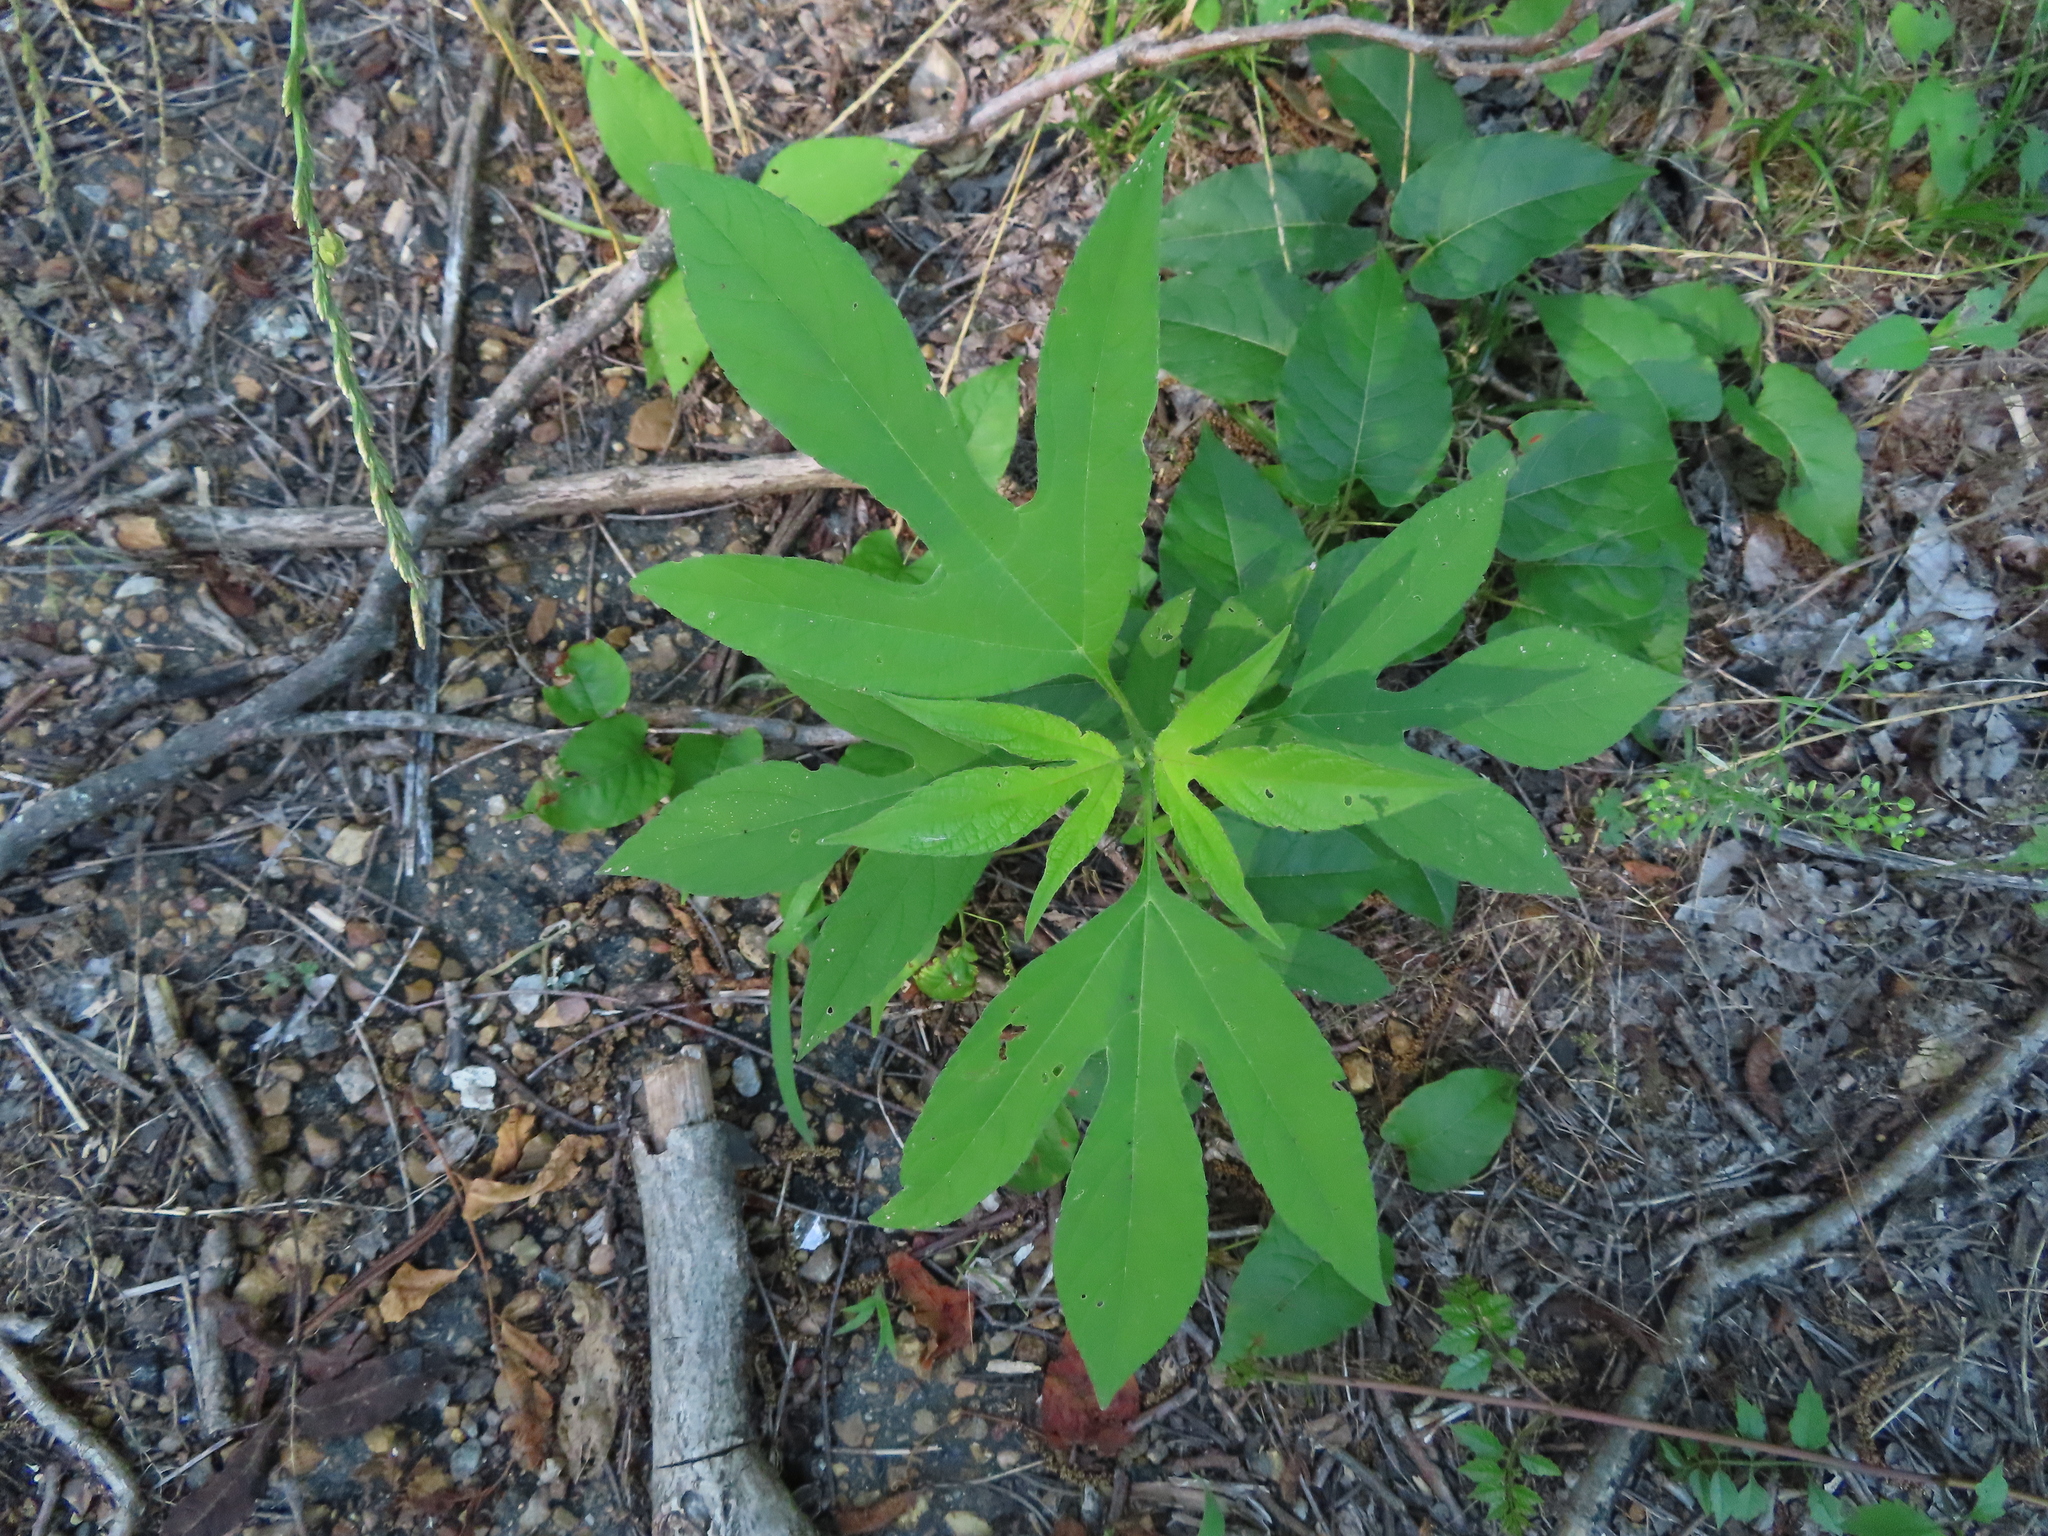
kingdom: Plantae
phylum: Tracheophyta
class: Magnoliopsida
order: Asterales
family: Asteraceae
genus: Ambrosia
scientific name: Ambrosia trifida
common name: Giant ragweed
